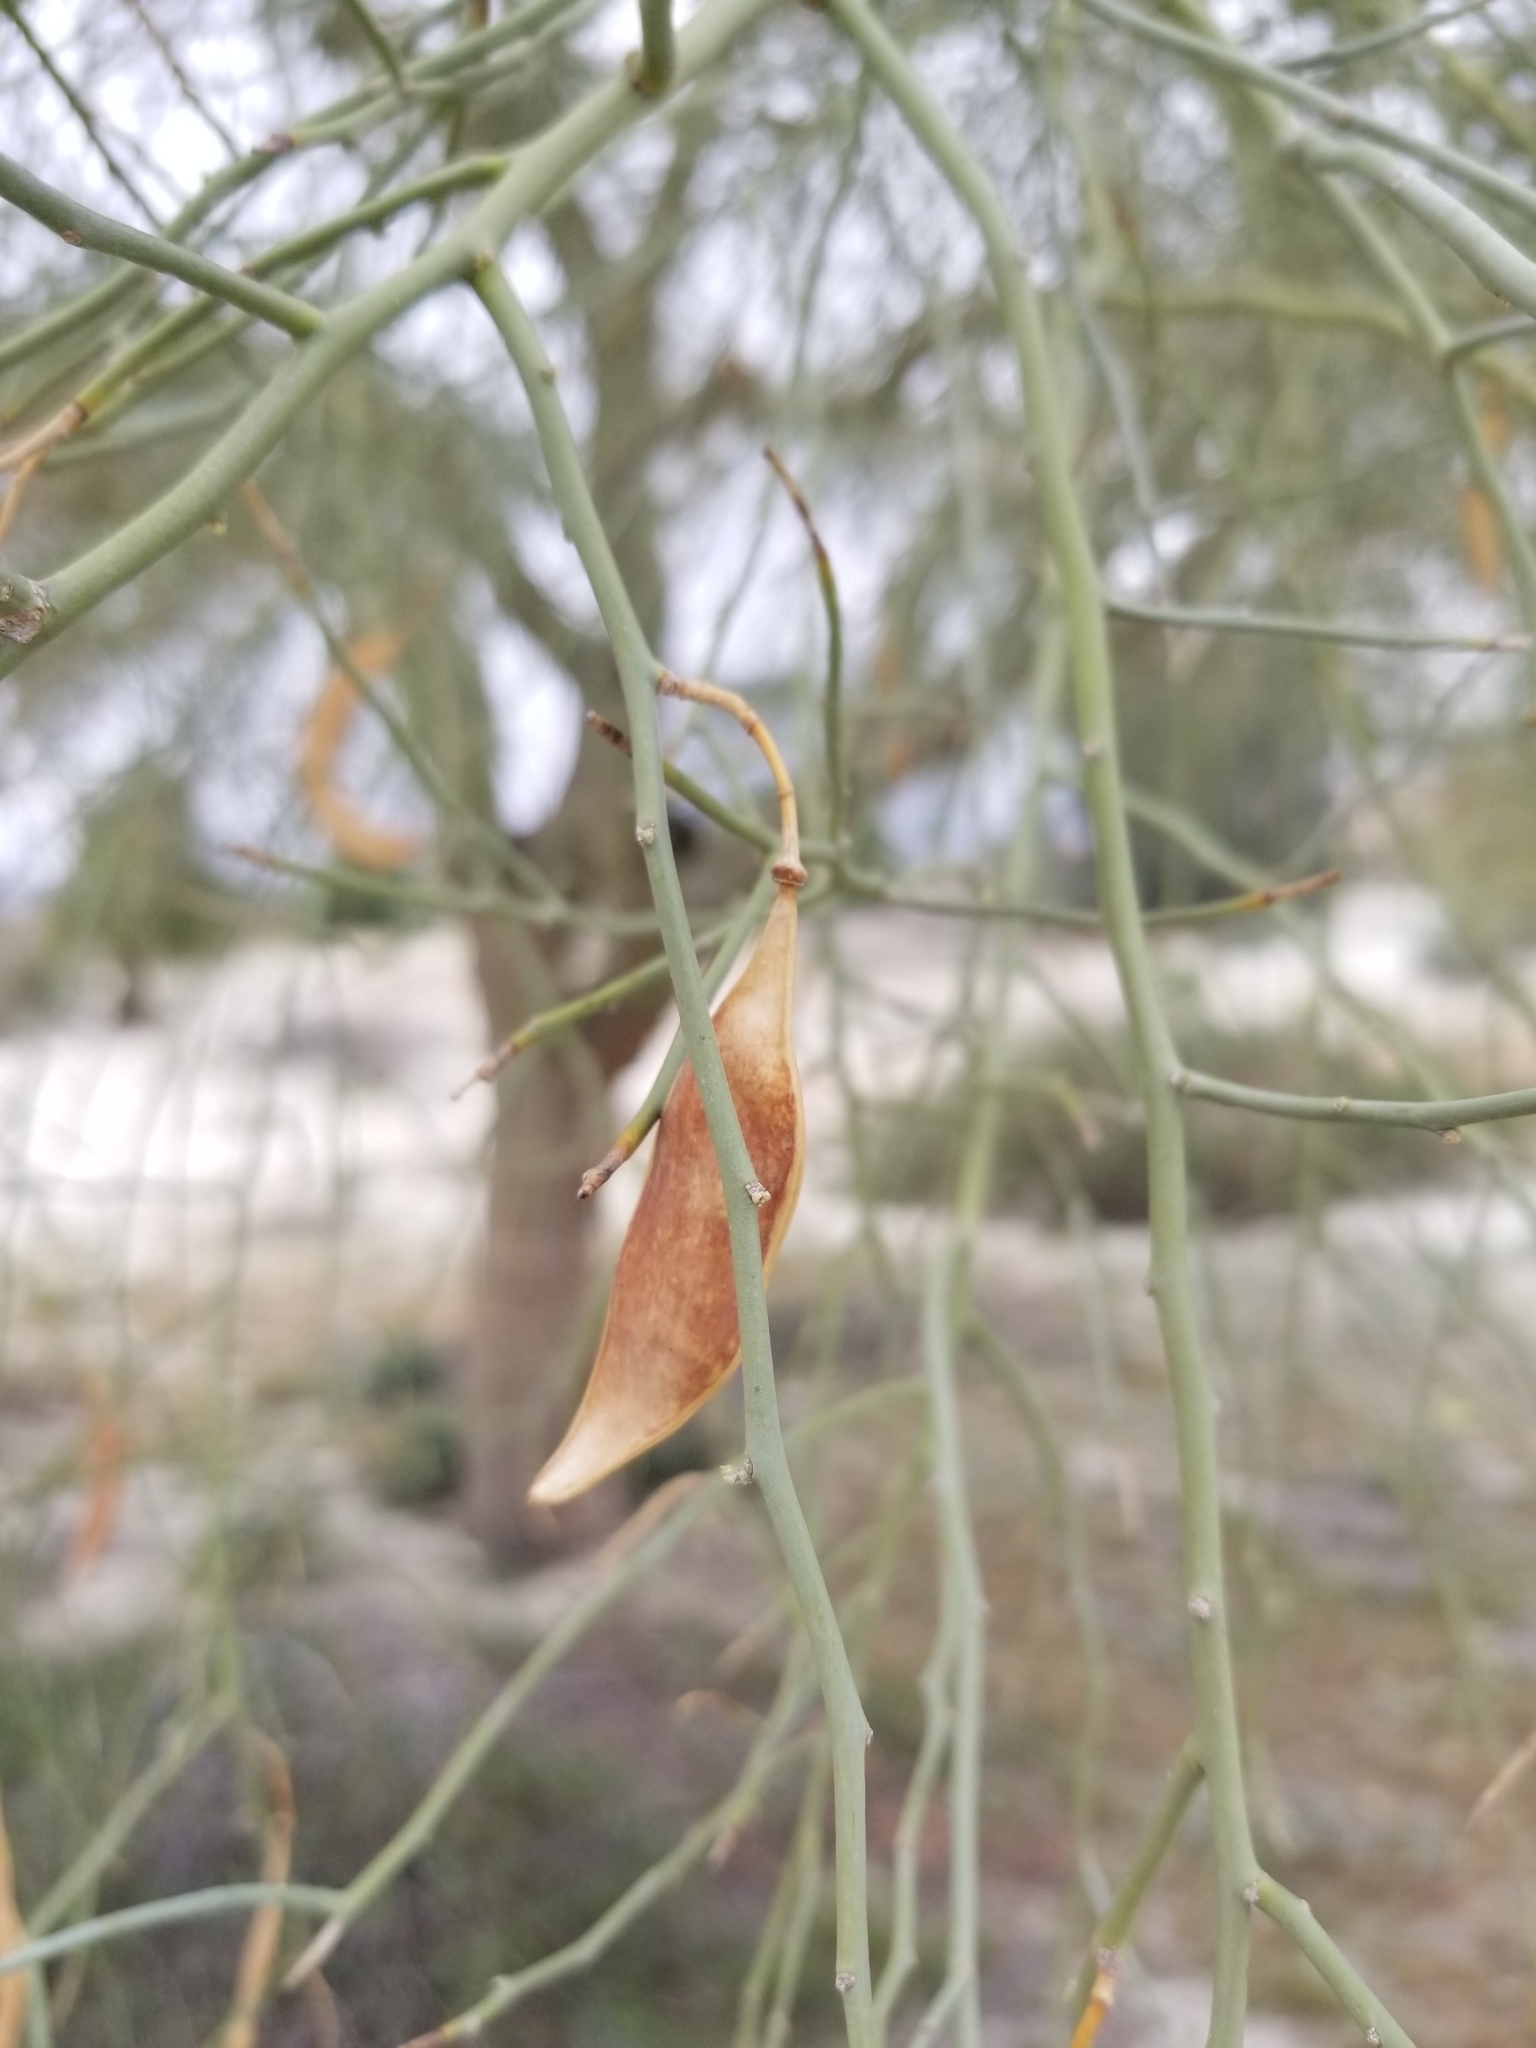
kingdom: Plantae
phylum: Tracheophyta
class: Magnoliopsida
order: Fabales
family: Fabaceae
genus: Parkinsonia
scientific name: Parkinsonia florida
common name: Blue paloverde
